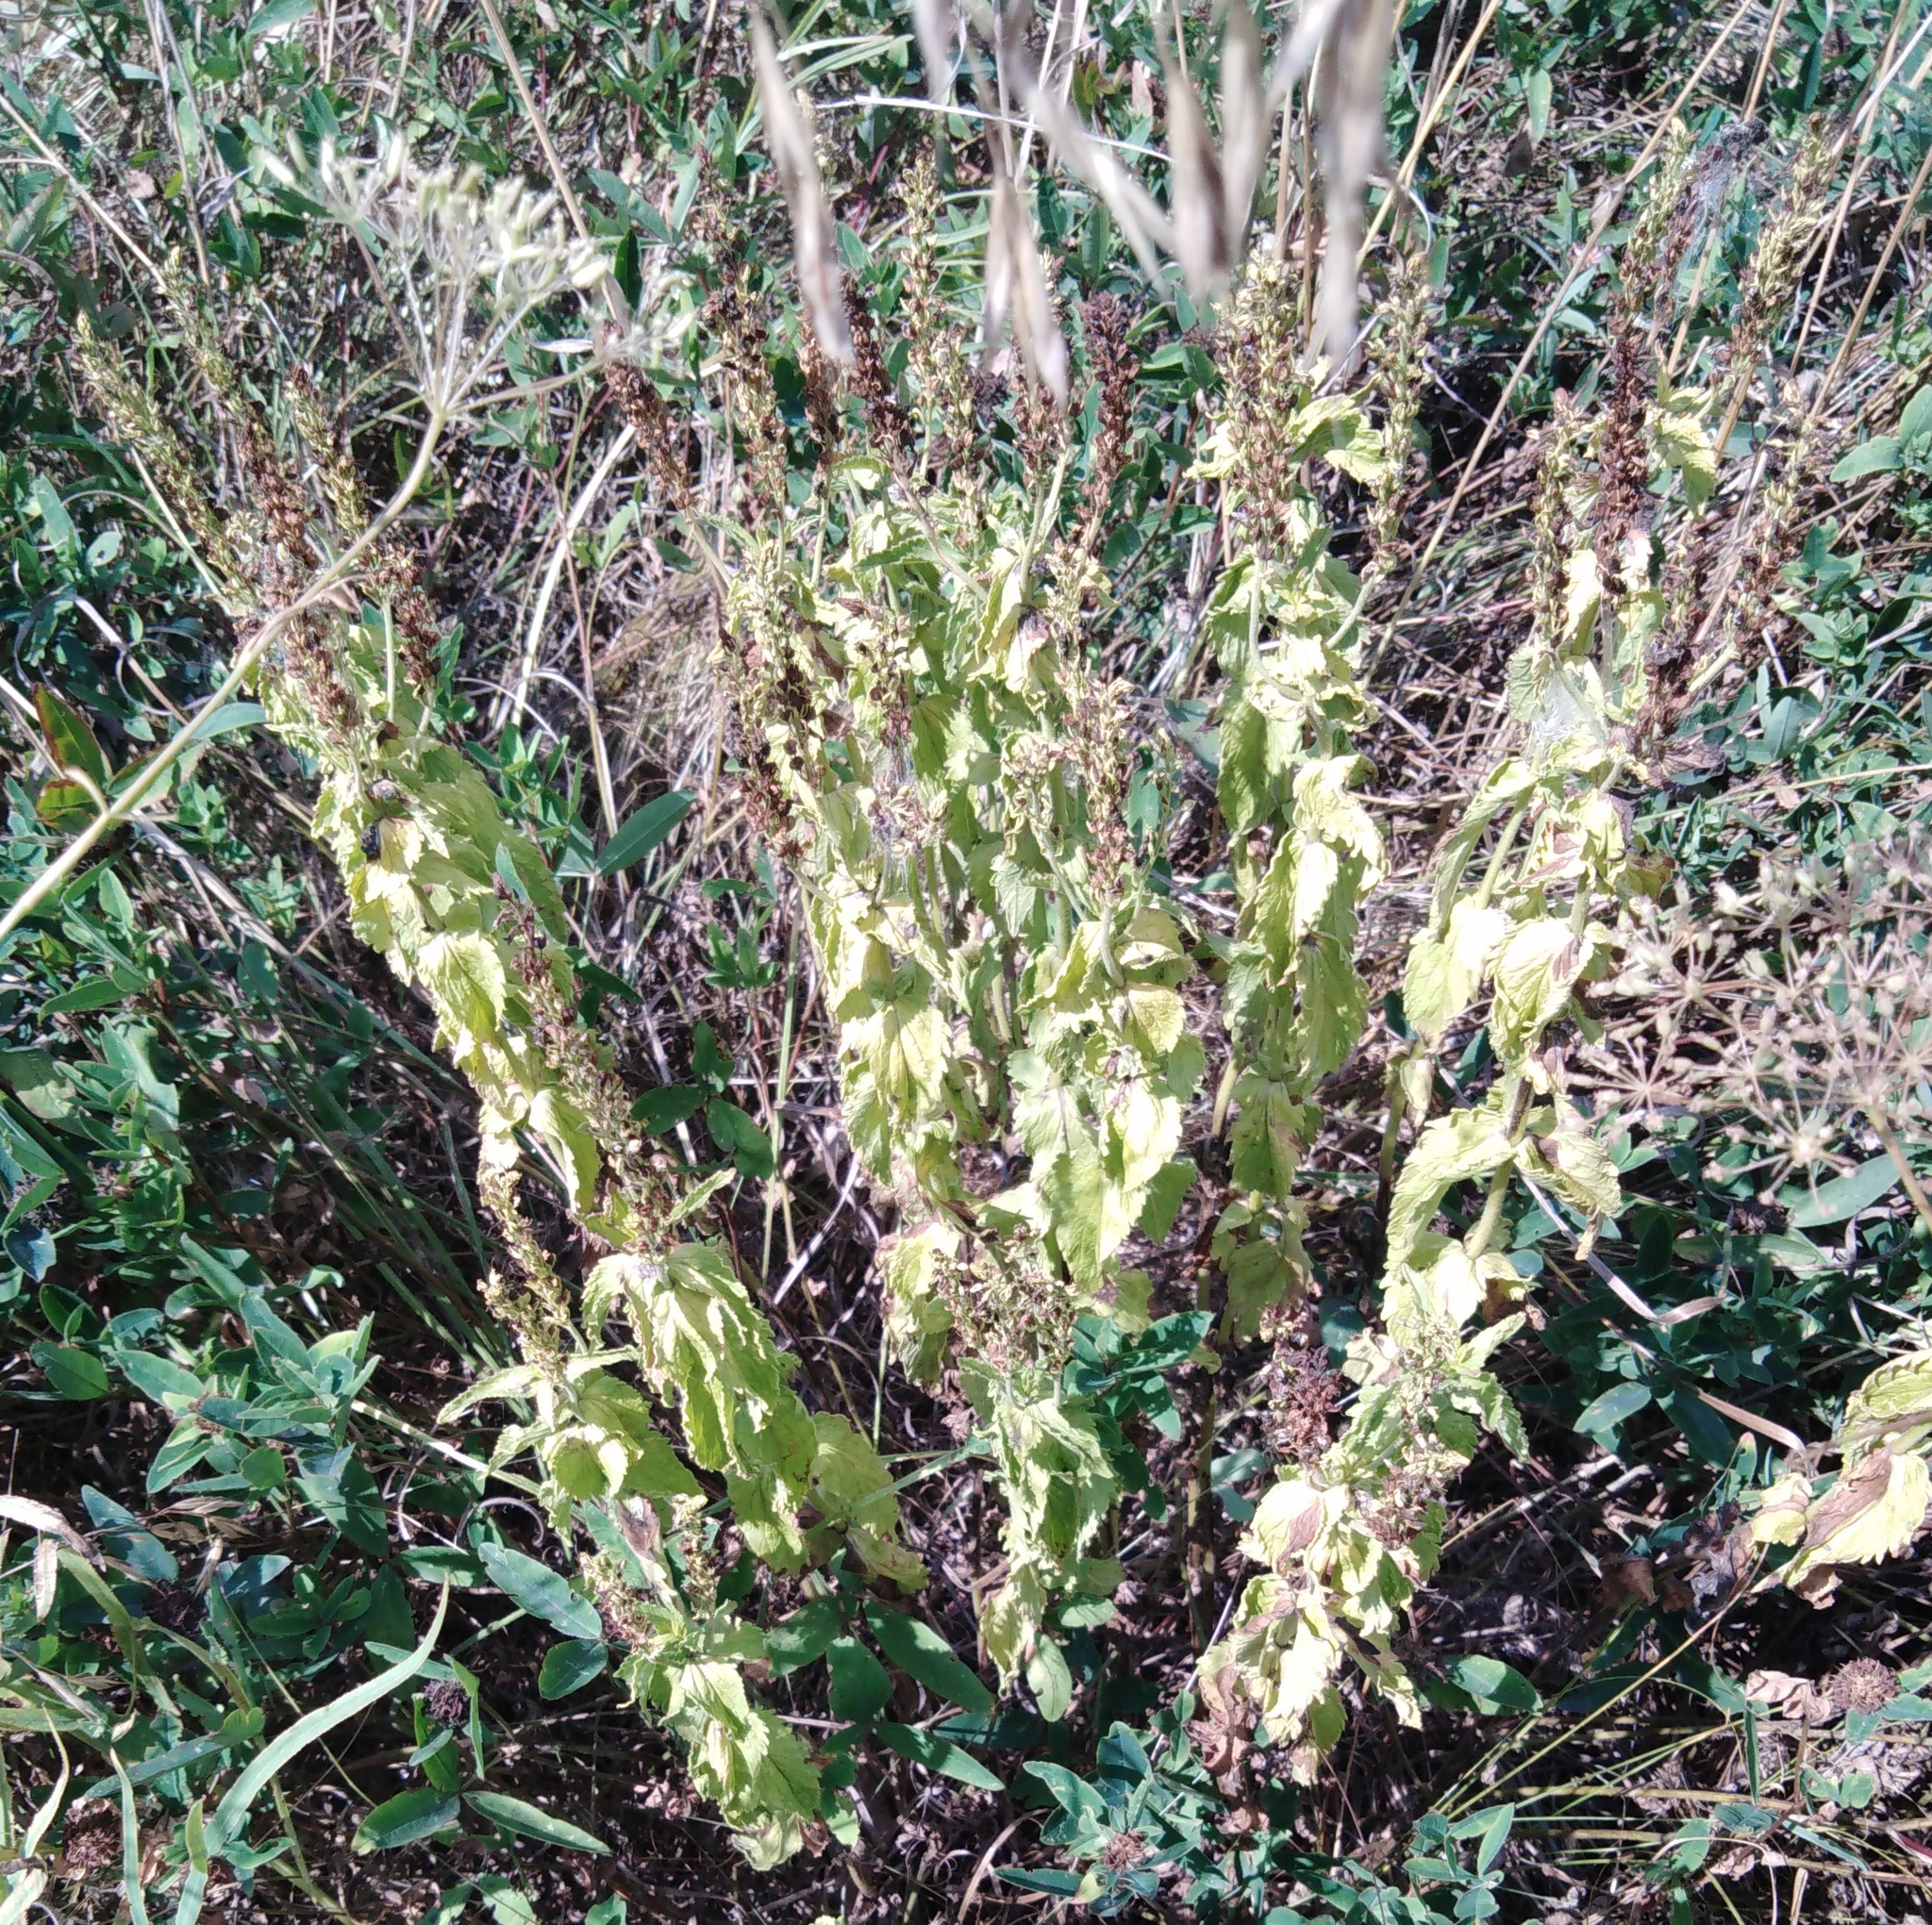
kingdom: Plantae
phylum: Tracheophyta
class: Magnoliopsida
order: Lamiales
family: Plantaginaceae
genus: Veronica
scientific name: Veronica teucrium
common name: Large speedwell
